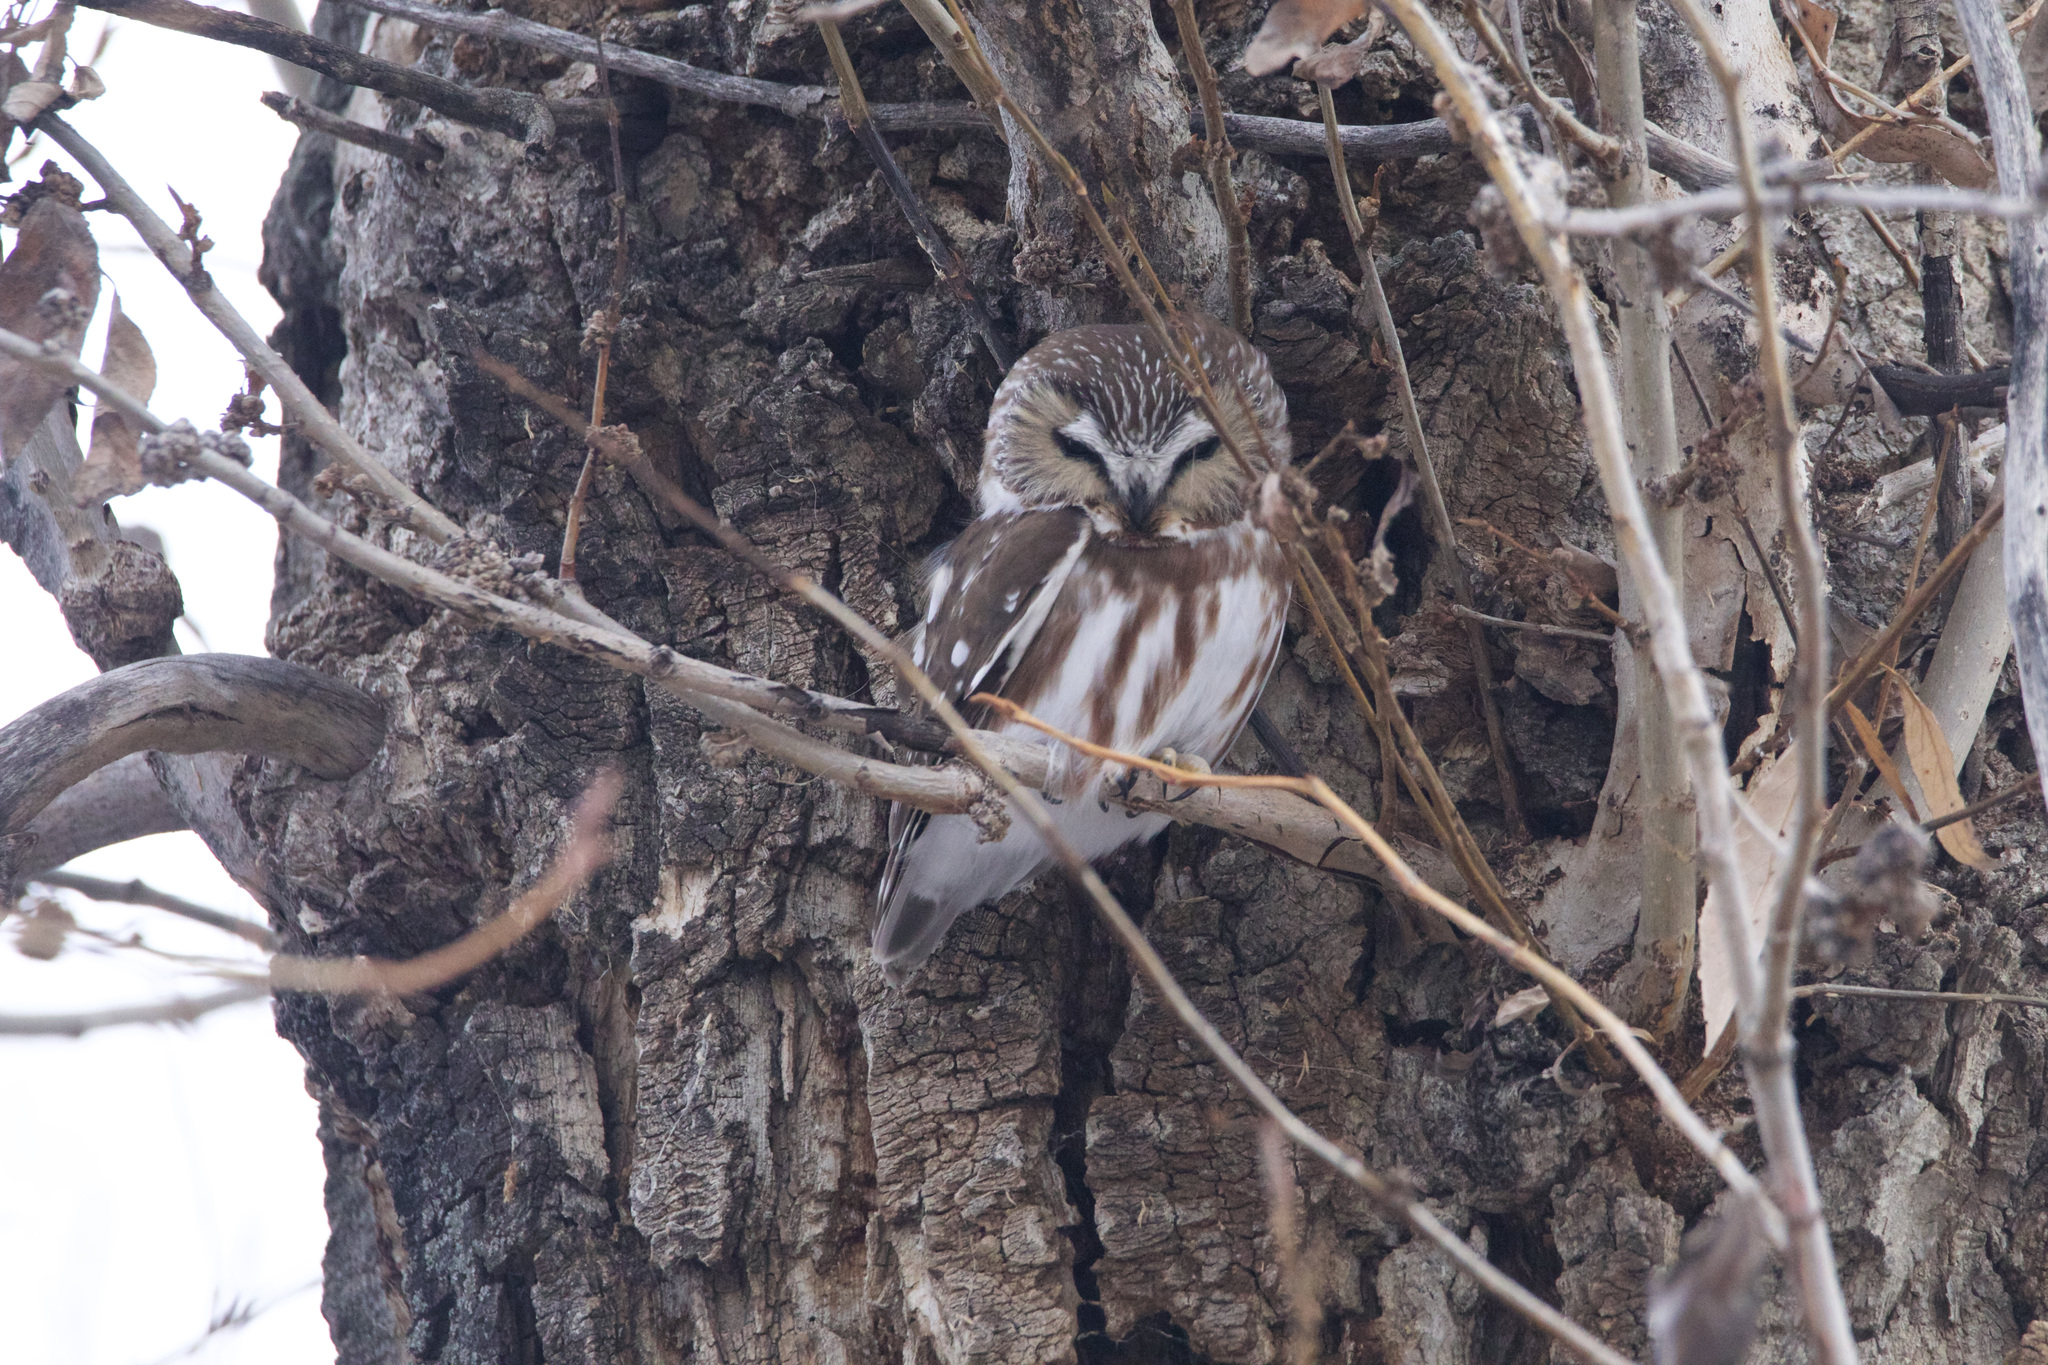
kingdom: Animalia
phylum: Chordata
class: Aves
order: Strigiformes
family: Strigidae
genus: Aegolius
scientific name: Aegolius acadicus
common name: Northern saw-whet owl
